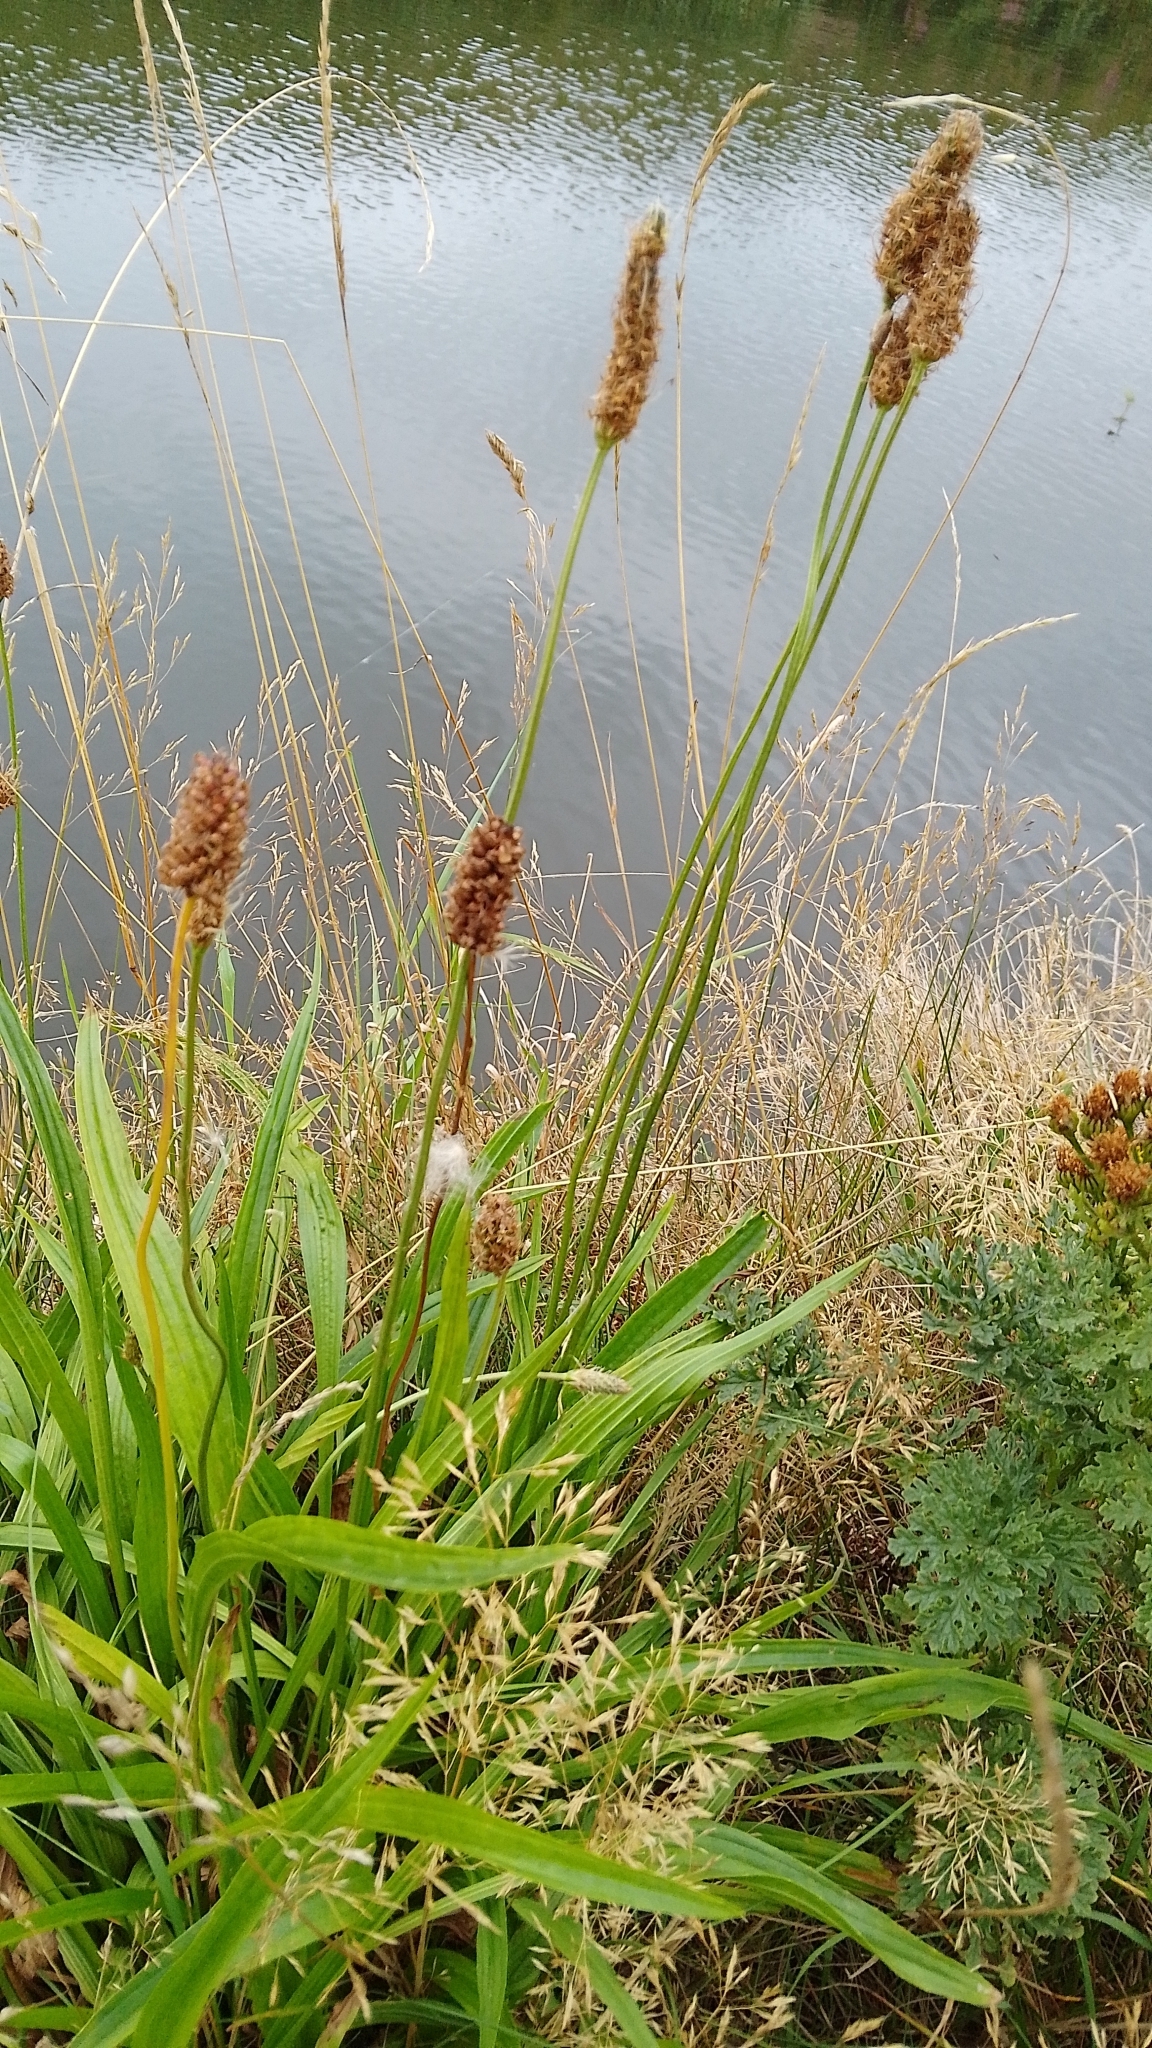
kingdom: Plantae
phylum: Tracheophyta
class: Magnoliopsida
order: Lamiales
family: Plantaginaceae
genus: Plantago
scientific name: Plantago lanceolata
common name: Ribwort plantain
